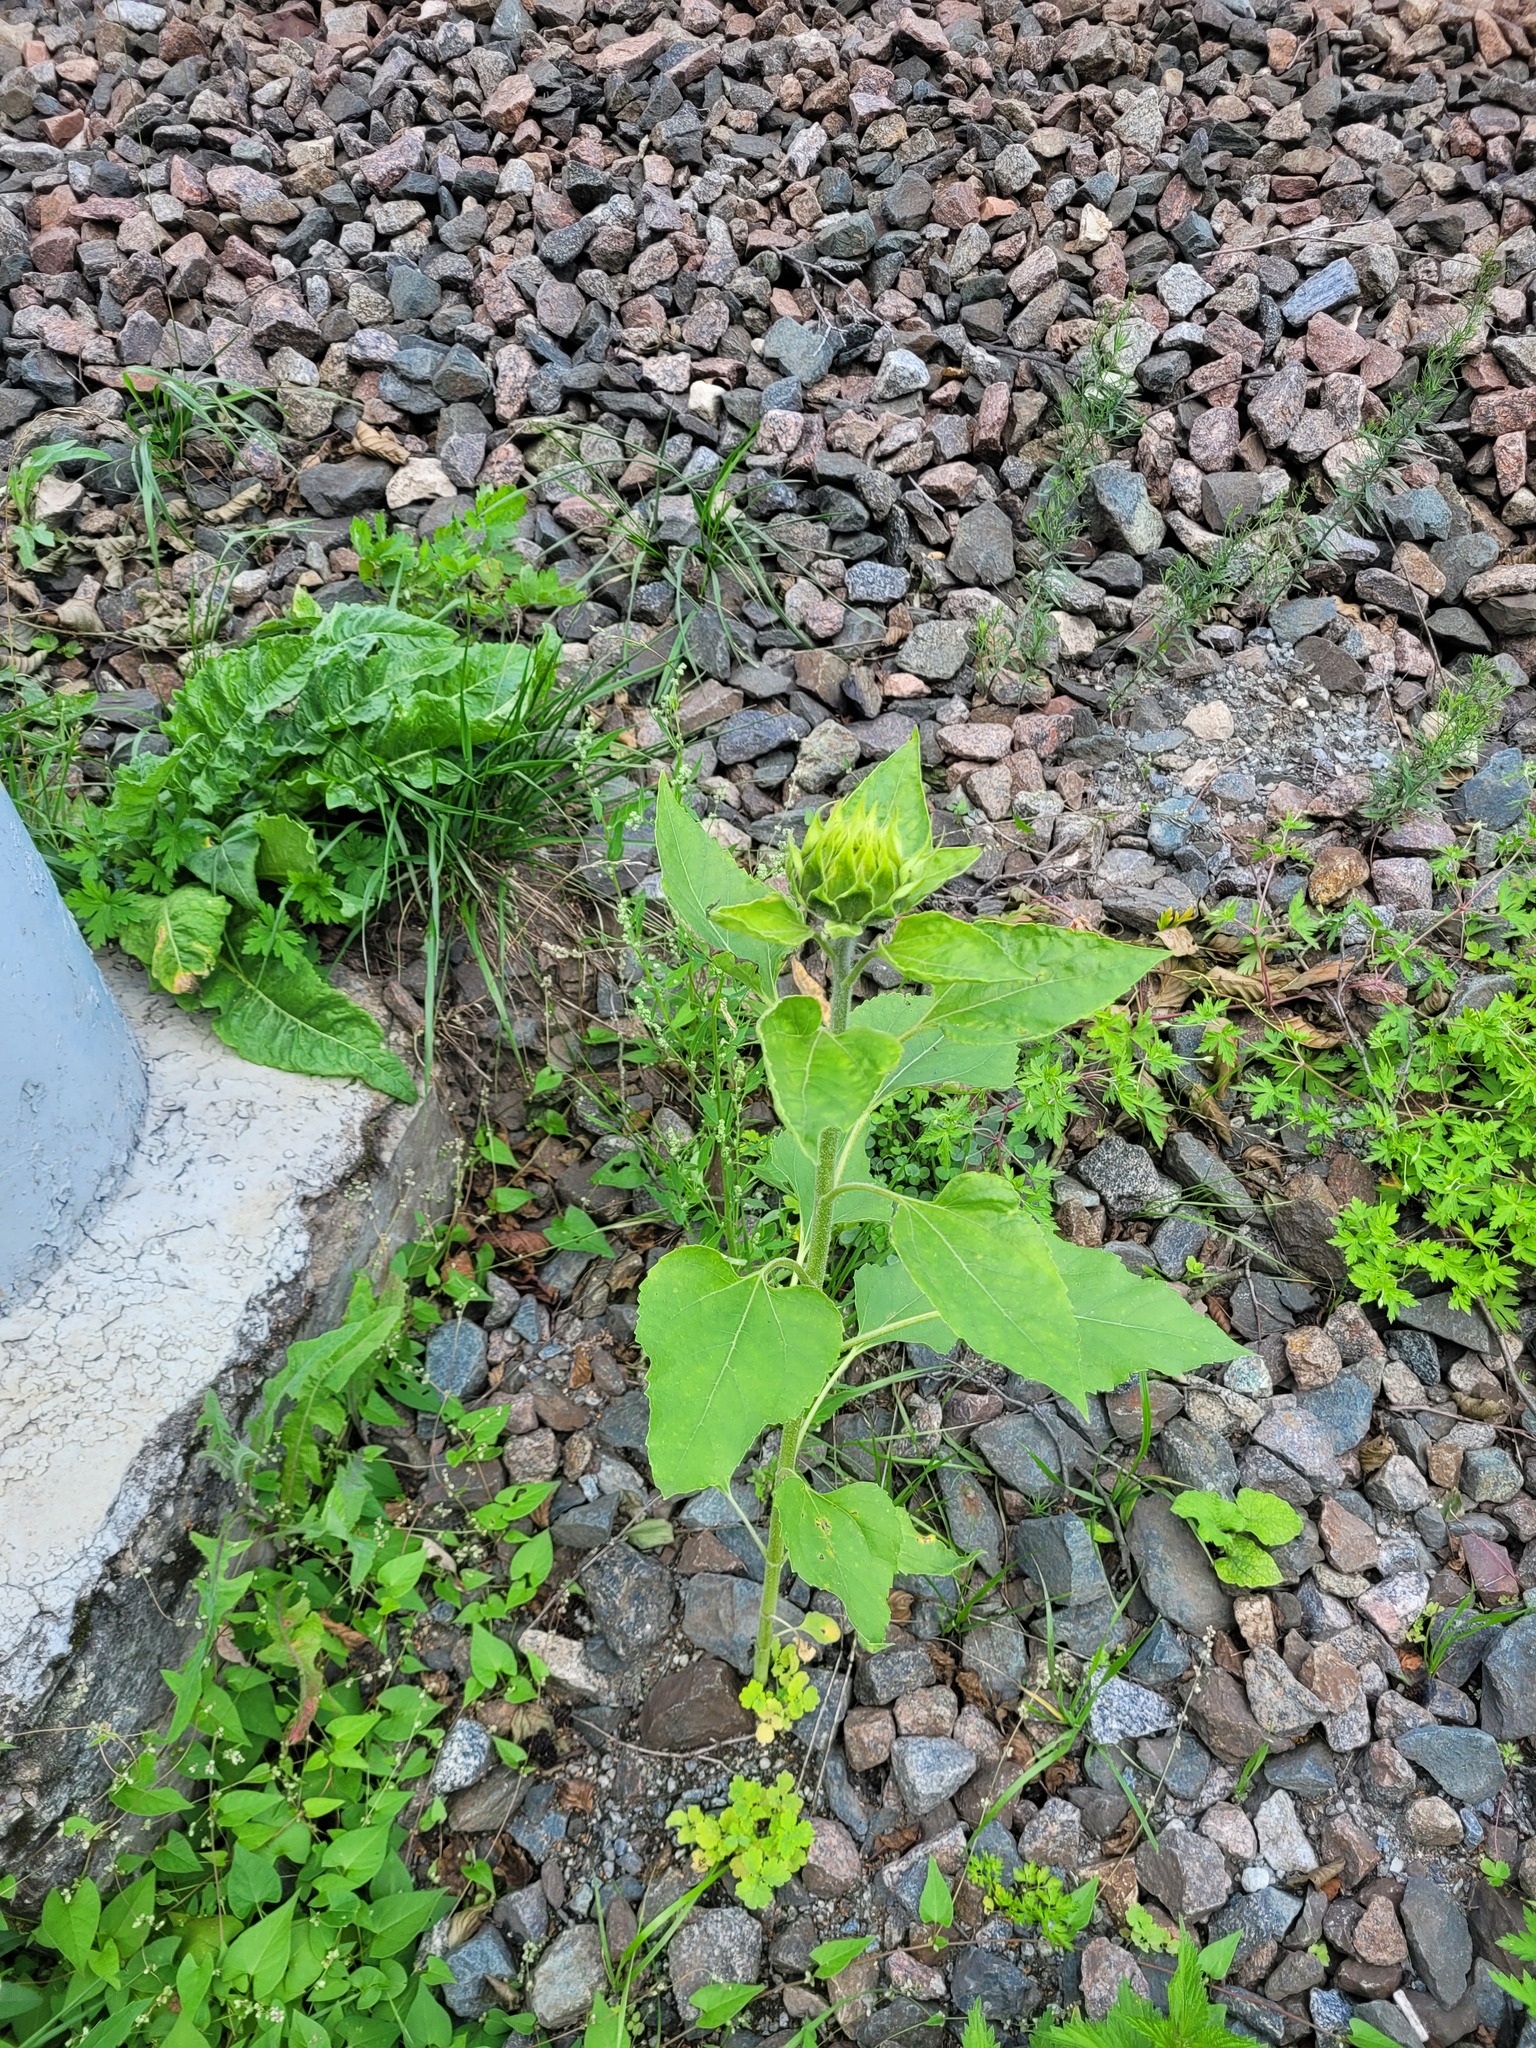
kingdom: Plantae
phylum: Tracheophyta
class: Magnoliopsida
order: Asterales
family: Asteraceae
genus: Helianthus
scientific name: Helianthus annuus
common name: Sunflower
